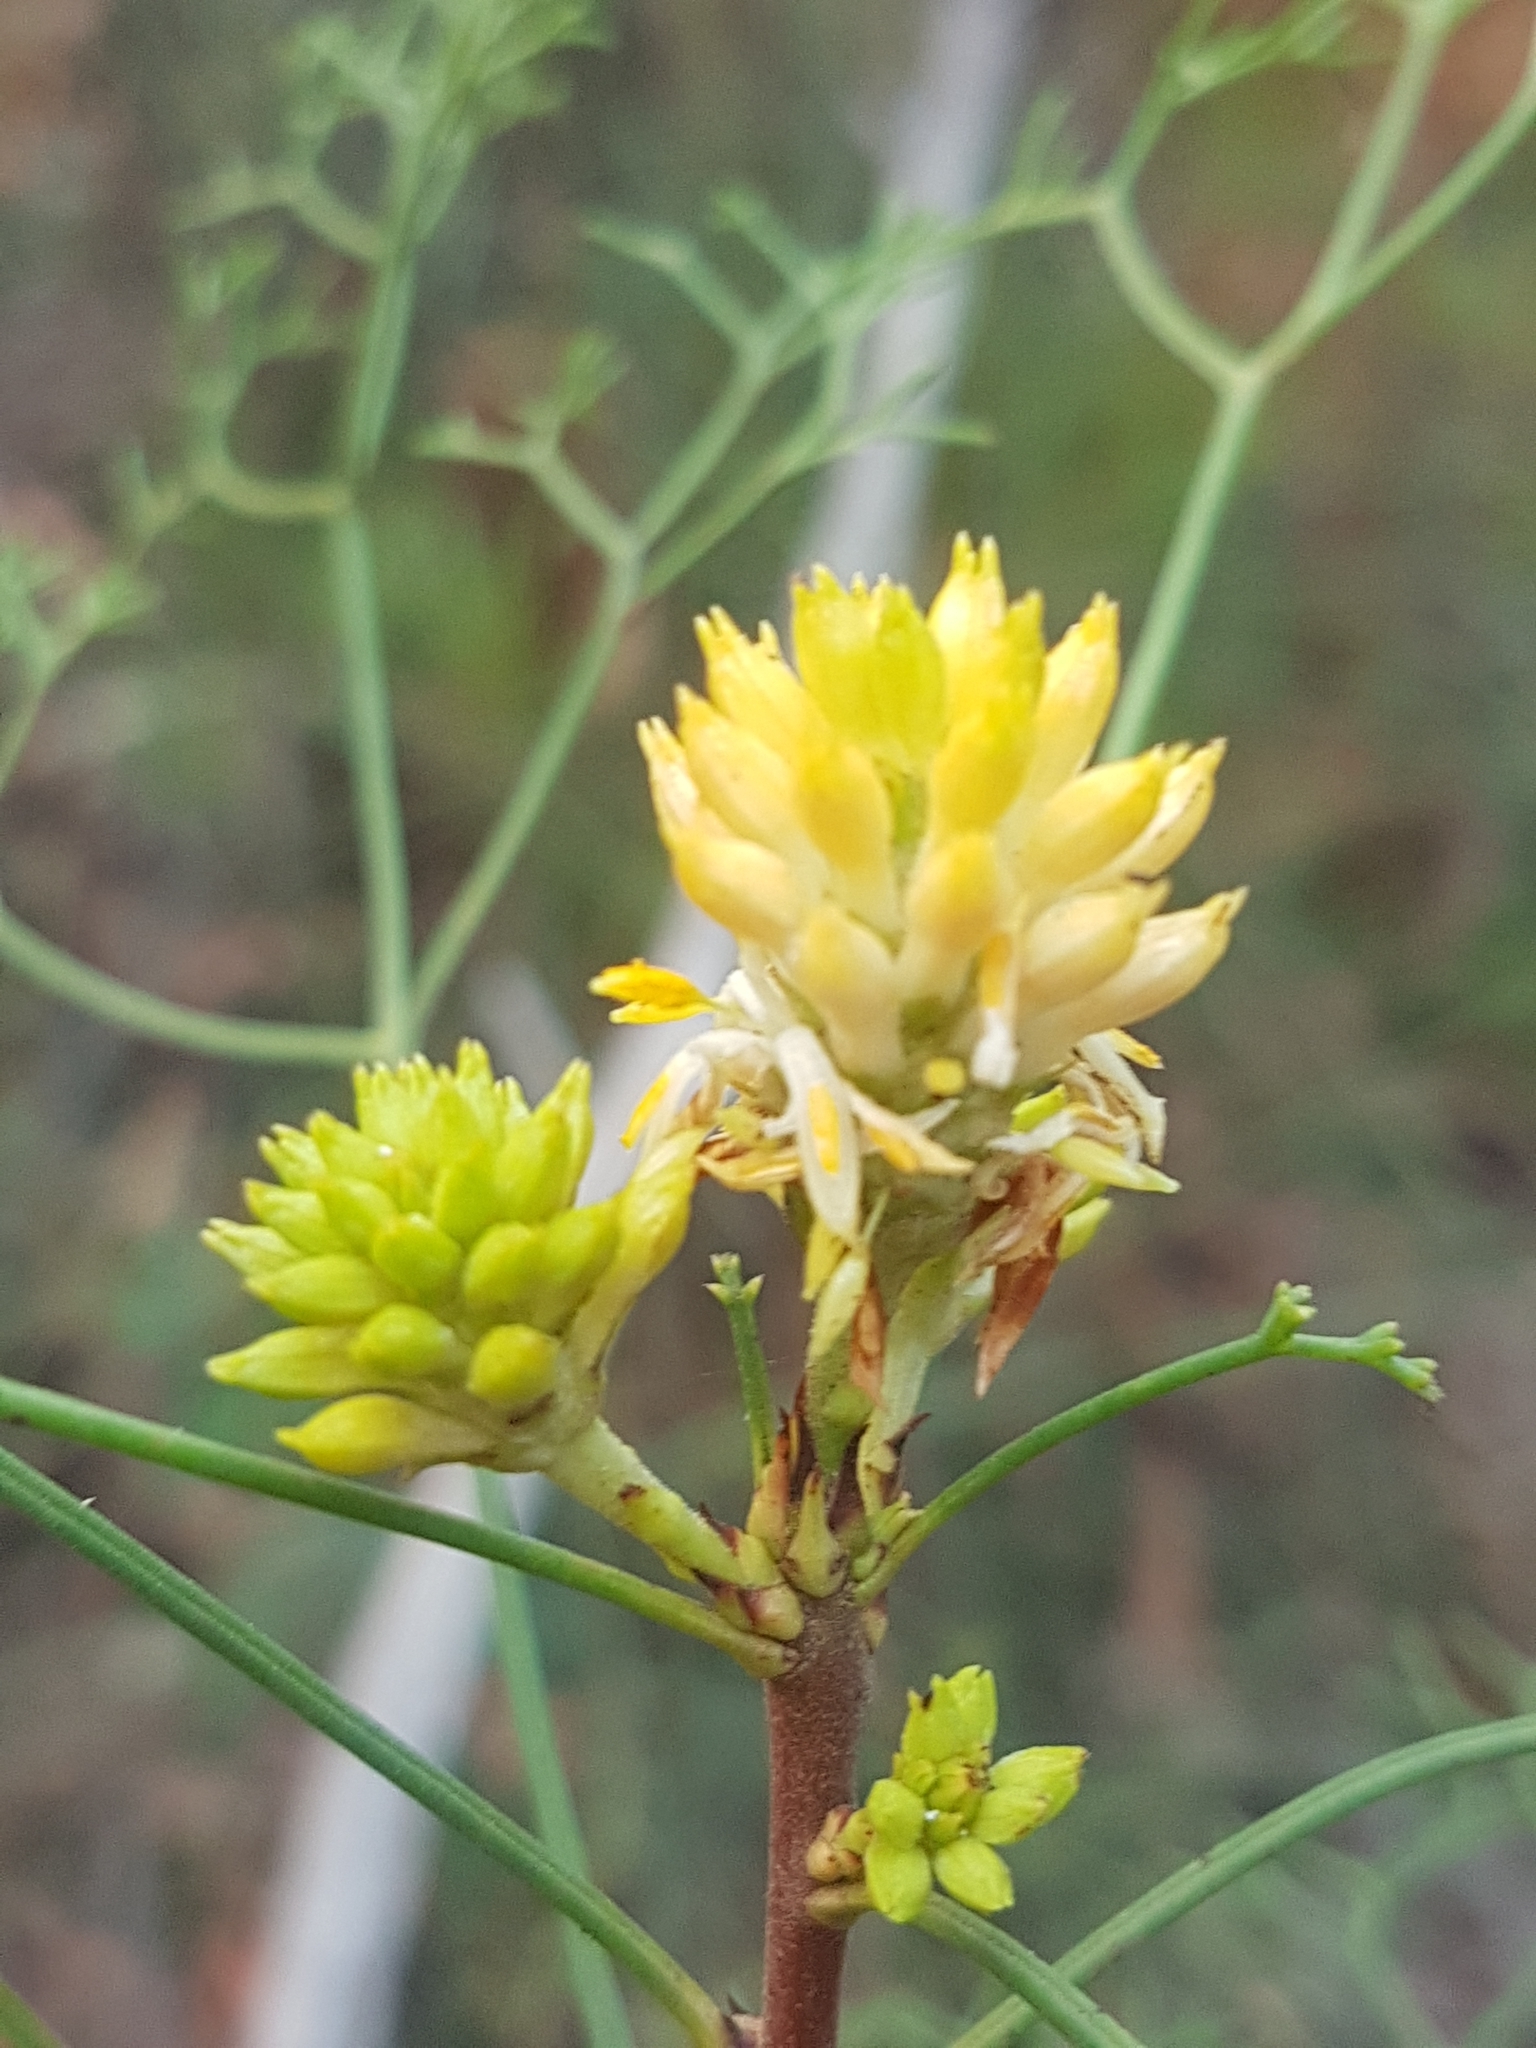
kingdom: Plantae
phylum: Tracheophyta
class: Magnoliopsida
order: Proteales
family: Proteaceae
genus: Petrophile
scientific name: Petrophile pedunculata
